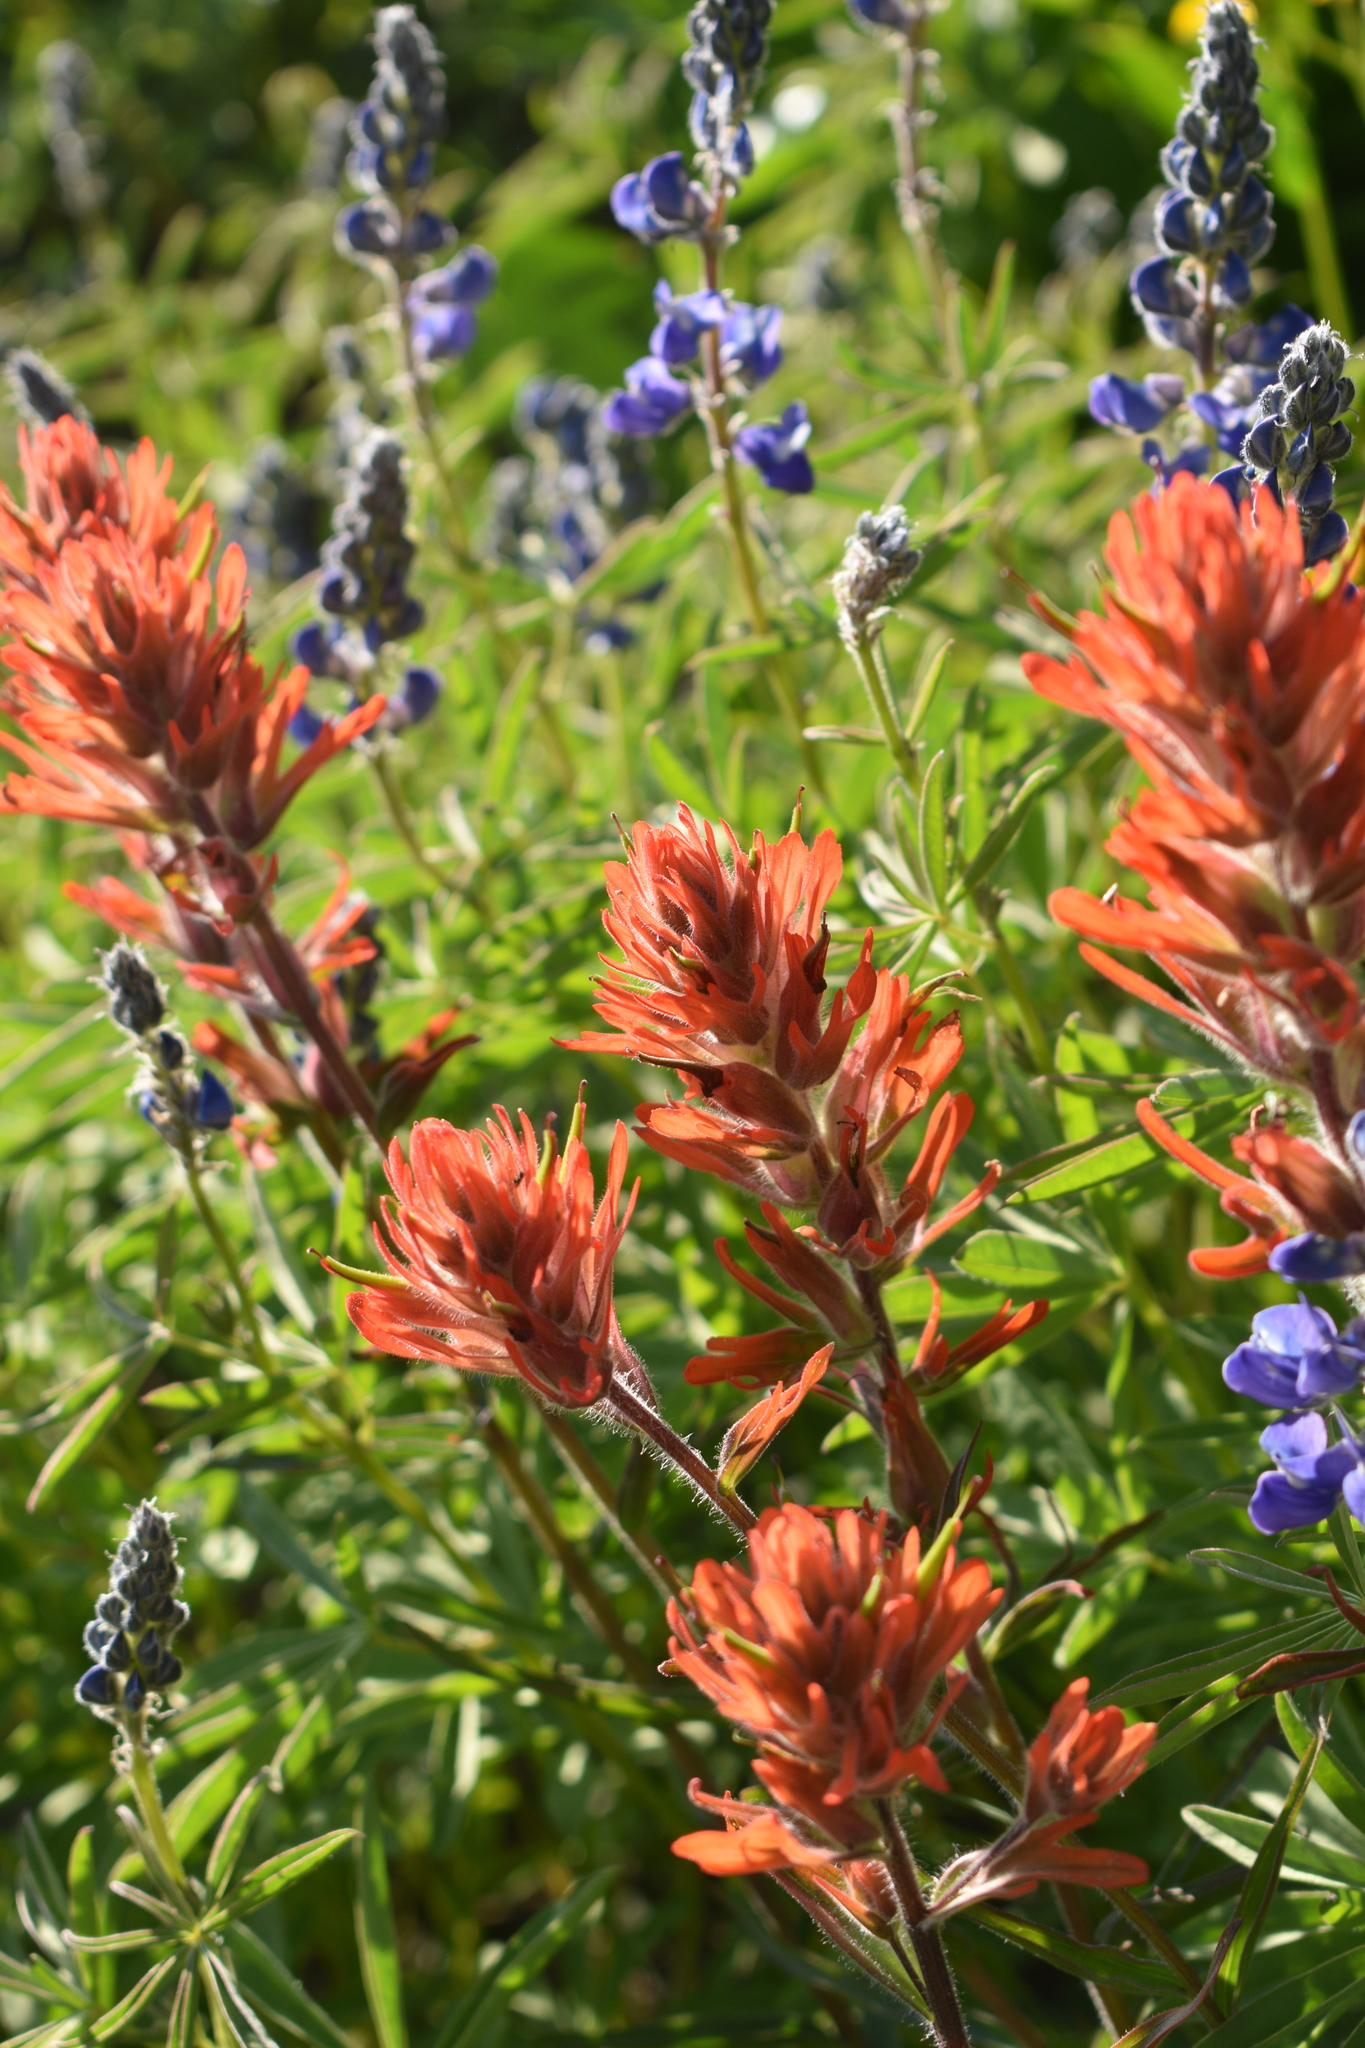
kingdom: Plantae
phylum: Tracheophyta
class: Magnoliopsida
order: Lamiales
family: Orobanchaceae
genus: Castilleja
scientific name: Castilleja miniata
